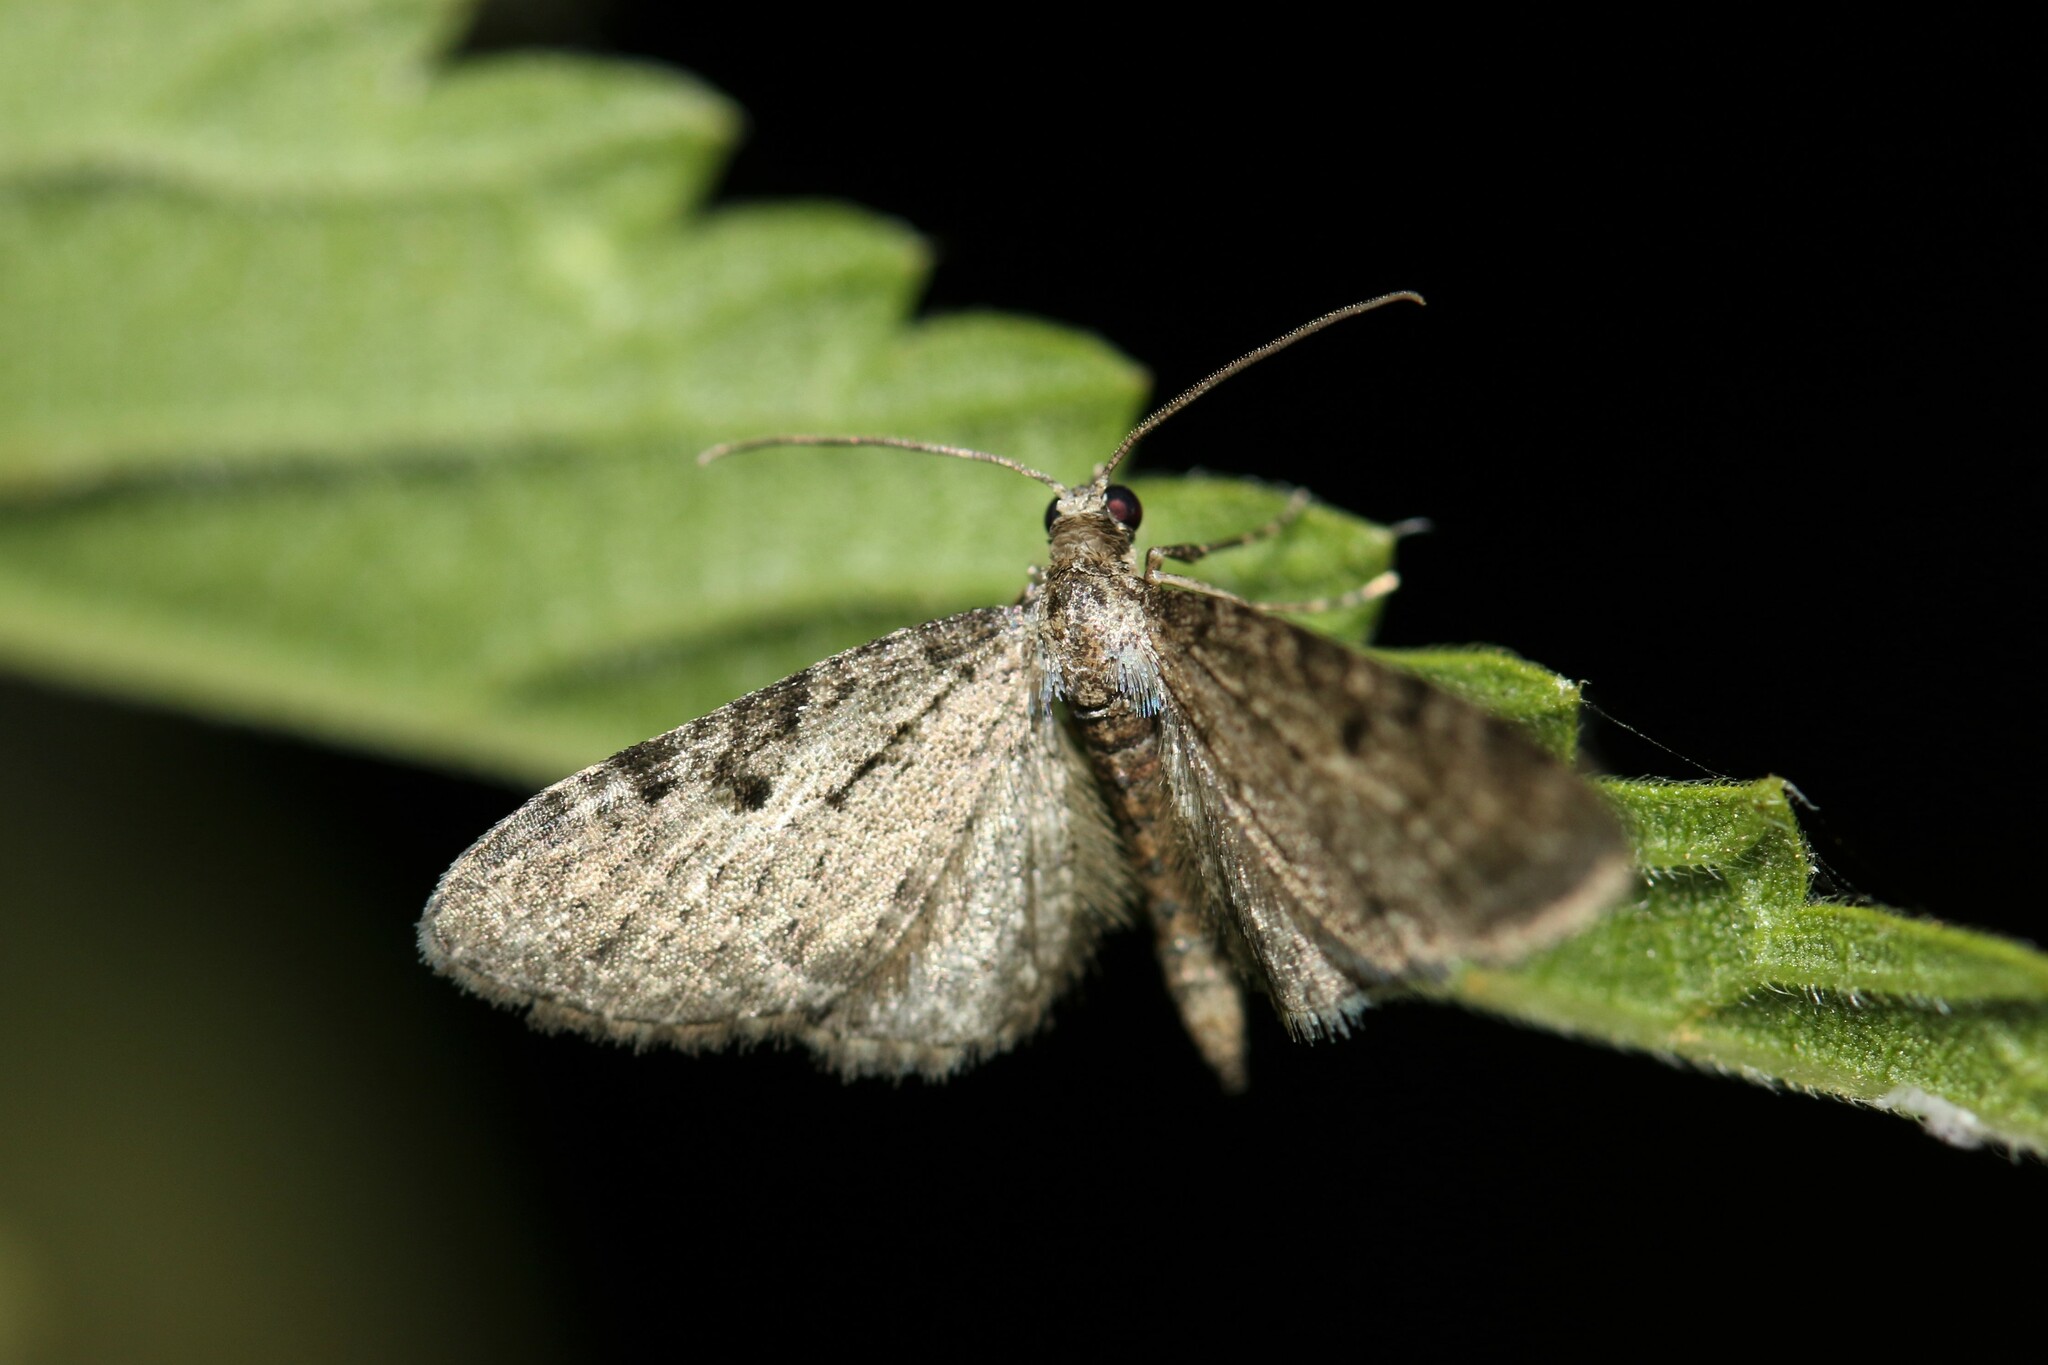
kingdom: Animalia
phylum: Arthropoda
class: Insecta
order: Lepidoptera
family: Geometridae
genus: Eupithecia
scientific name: Eupithecia virgaureata
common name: Golden-rod pug
